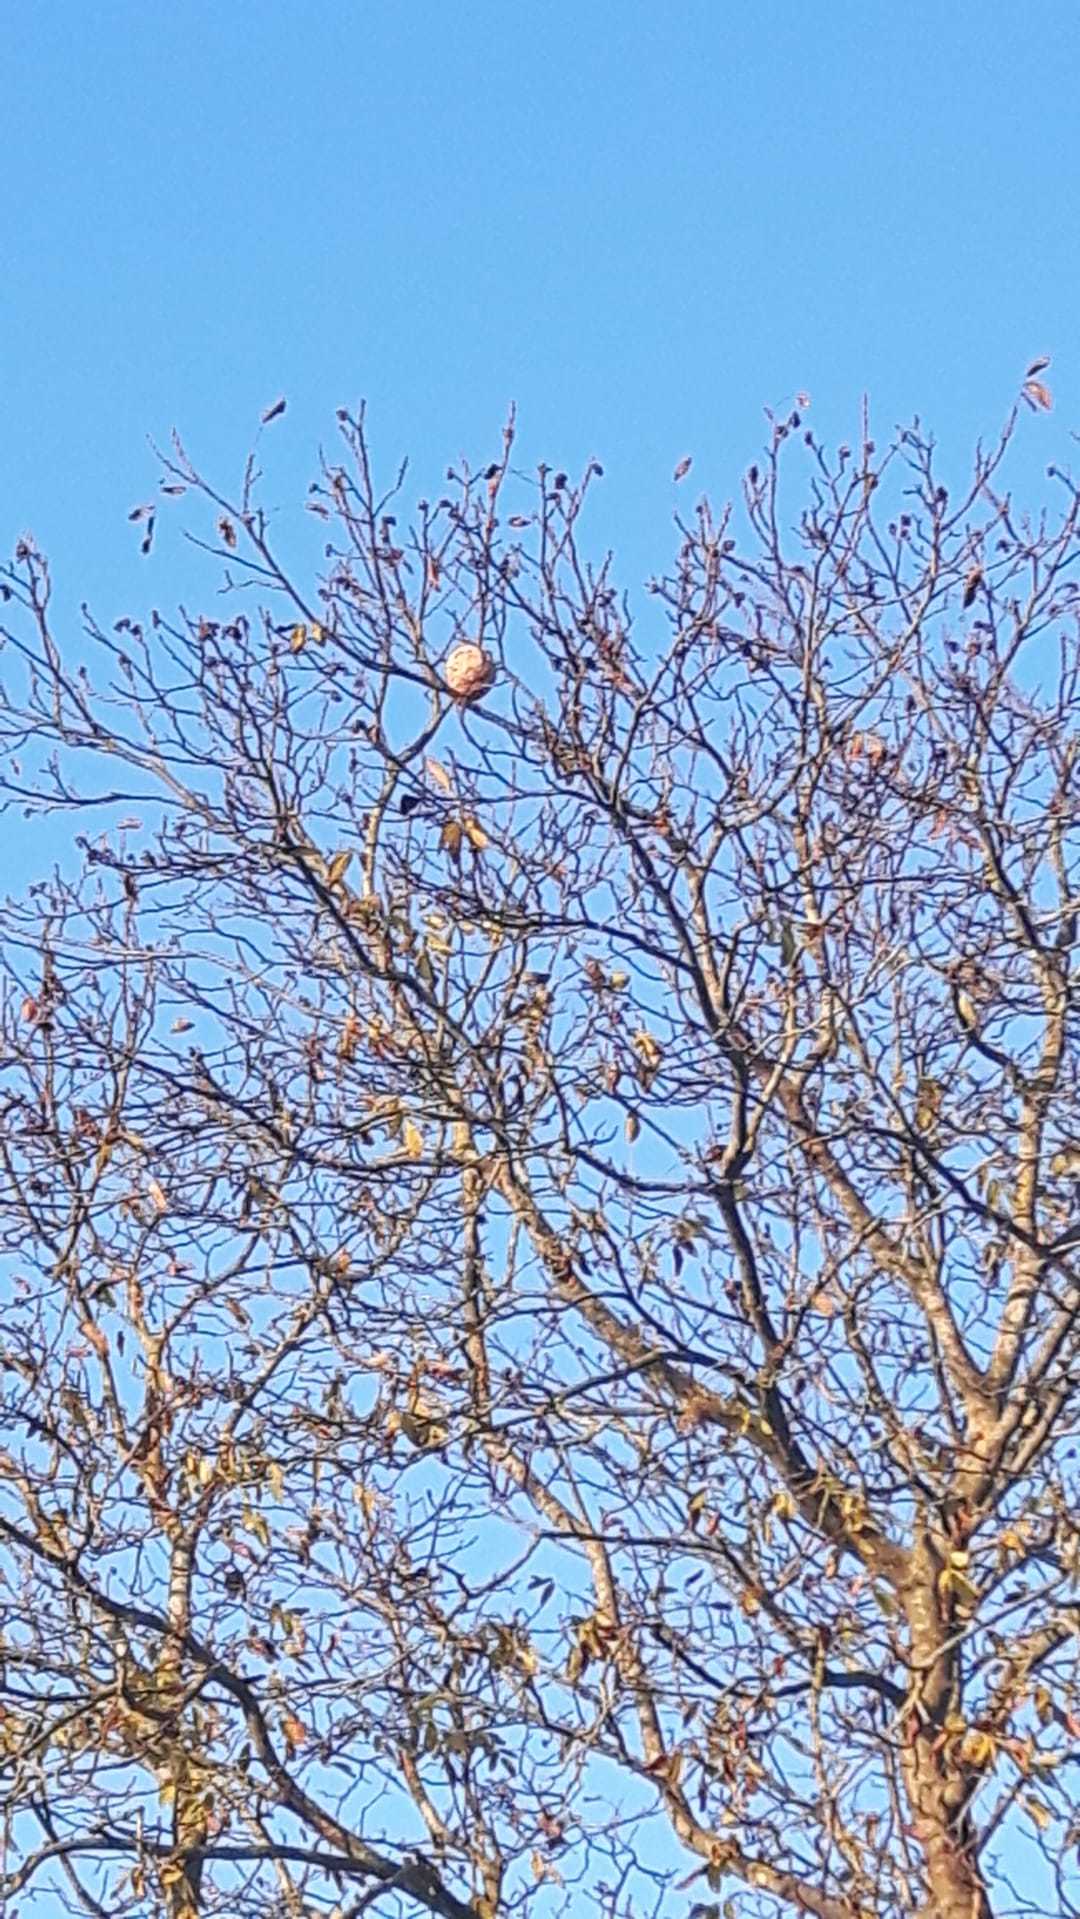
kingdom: Animalia
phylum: Arthropoda
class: Insecta
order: Hymenoptera
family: Vespidae
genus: Vespa
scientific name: Vespa velutina
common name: Asian hornet
